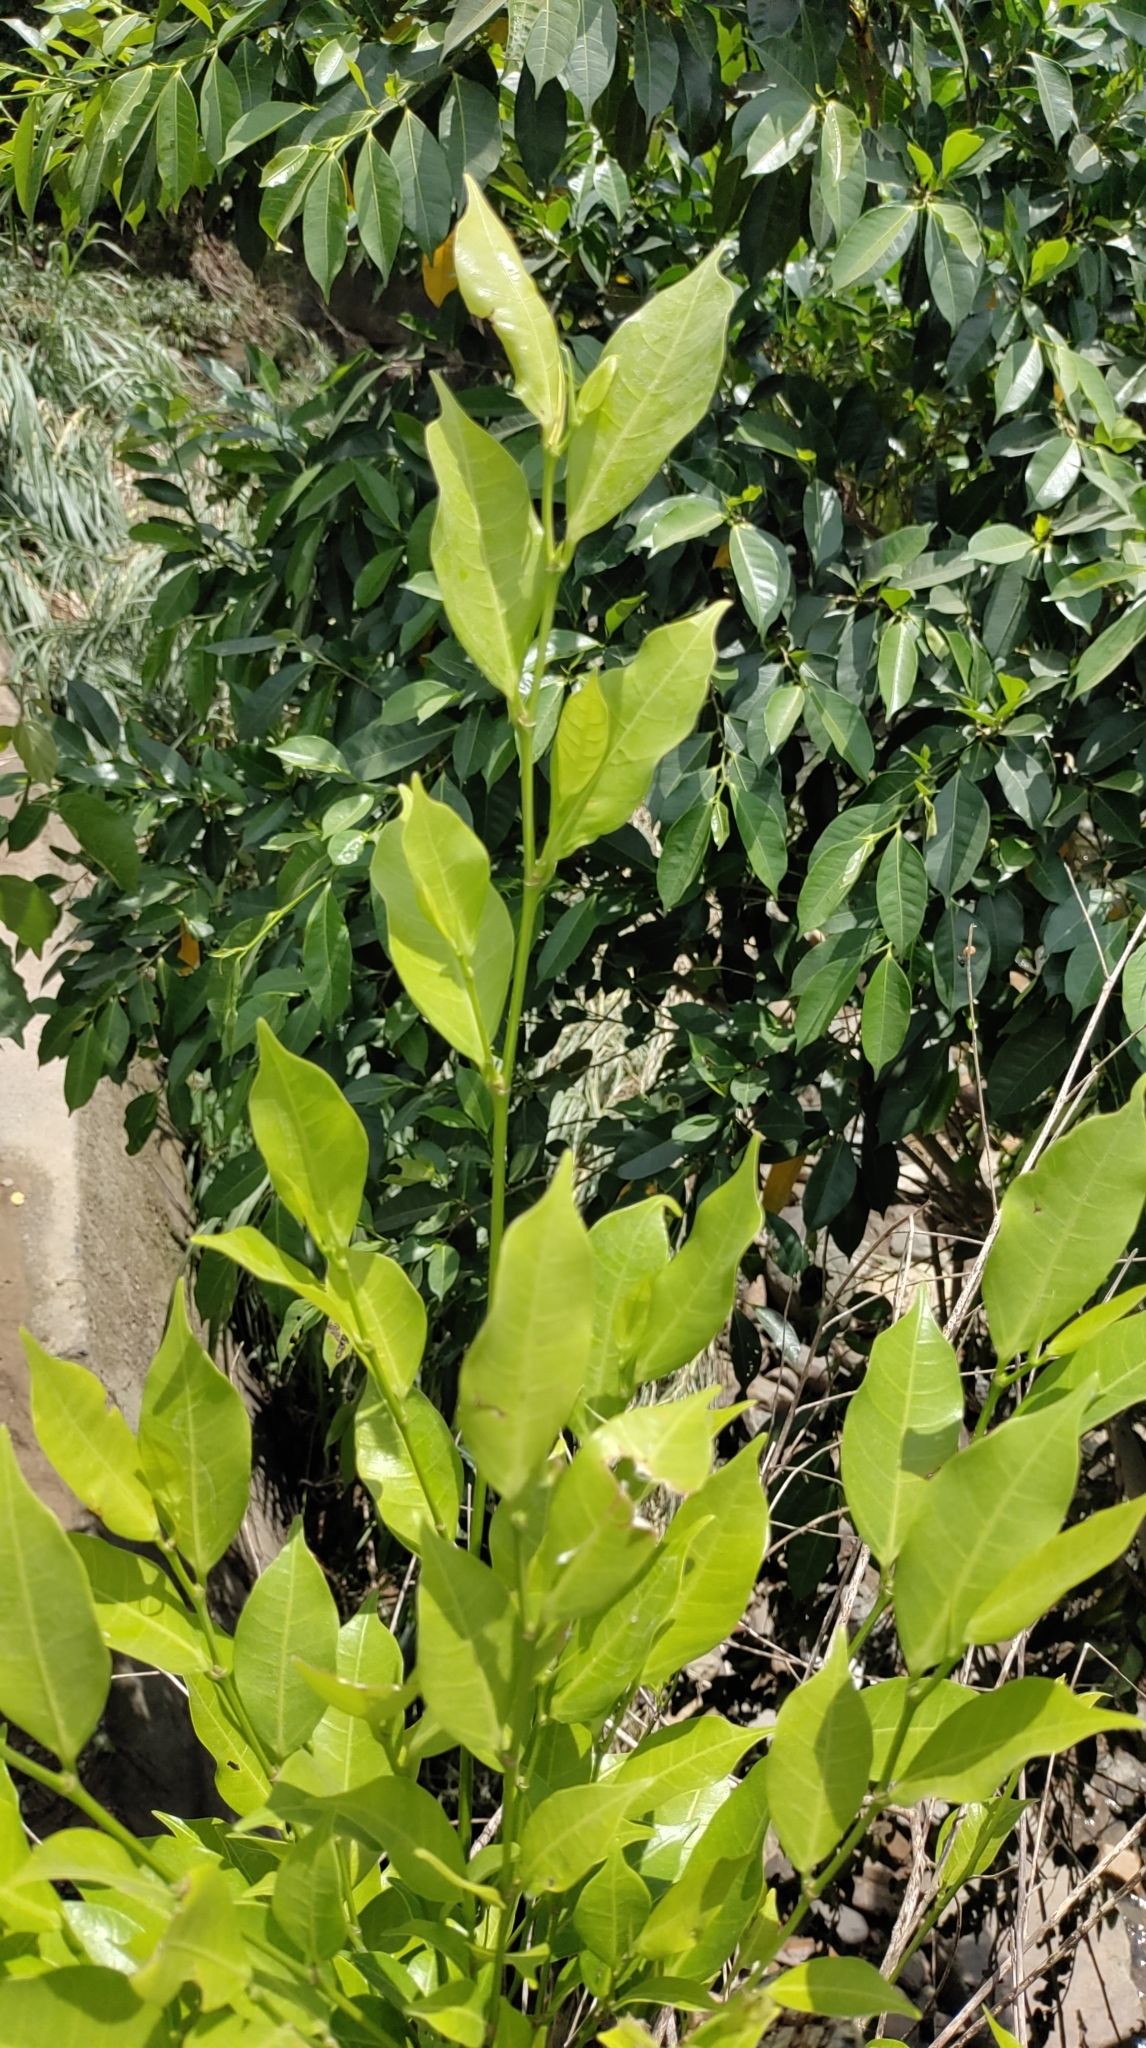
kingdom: Plantae
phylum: Tracheophyta
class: Magnoliopsida
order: Rosales
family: Moraceae
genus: Ficus
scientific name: Ficus virgata
